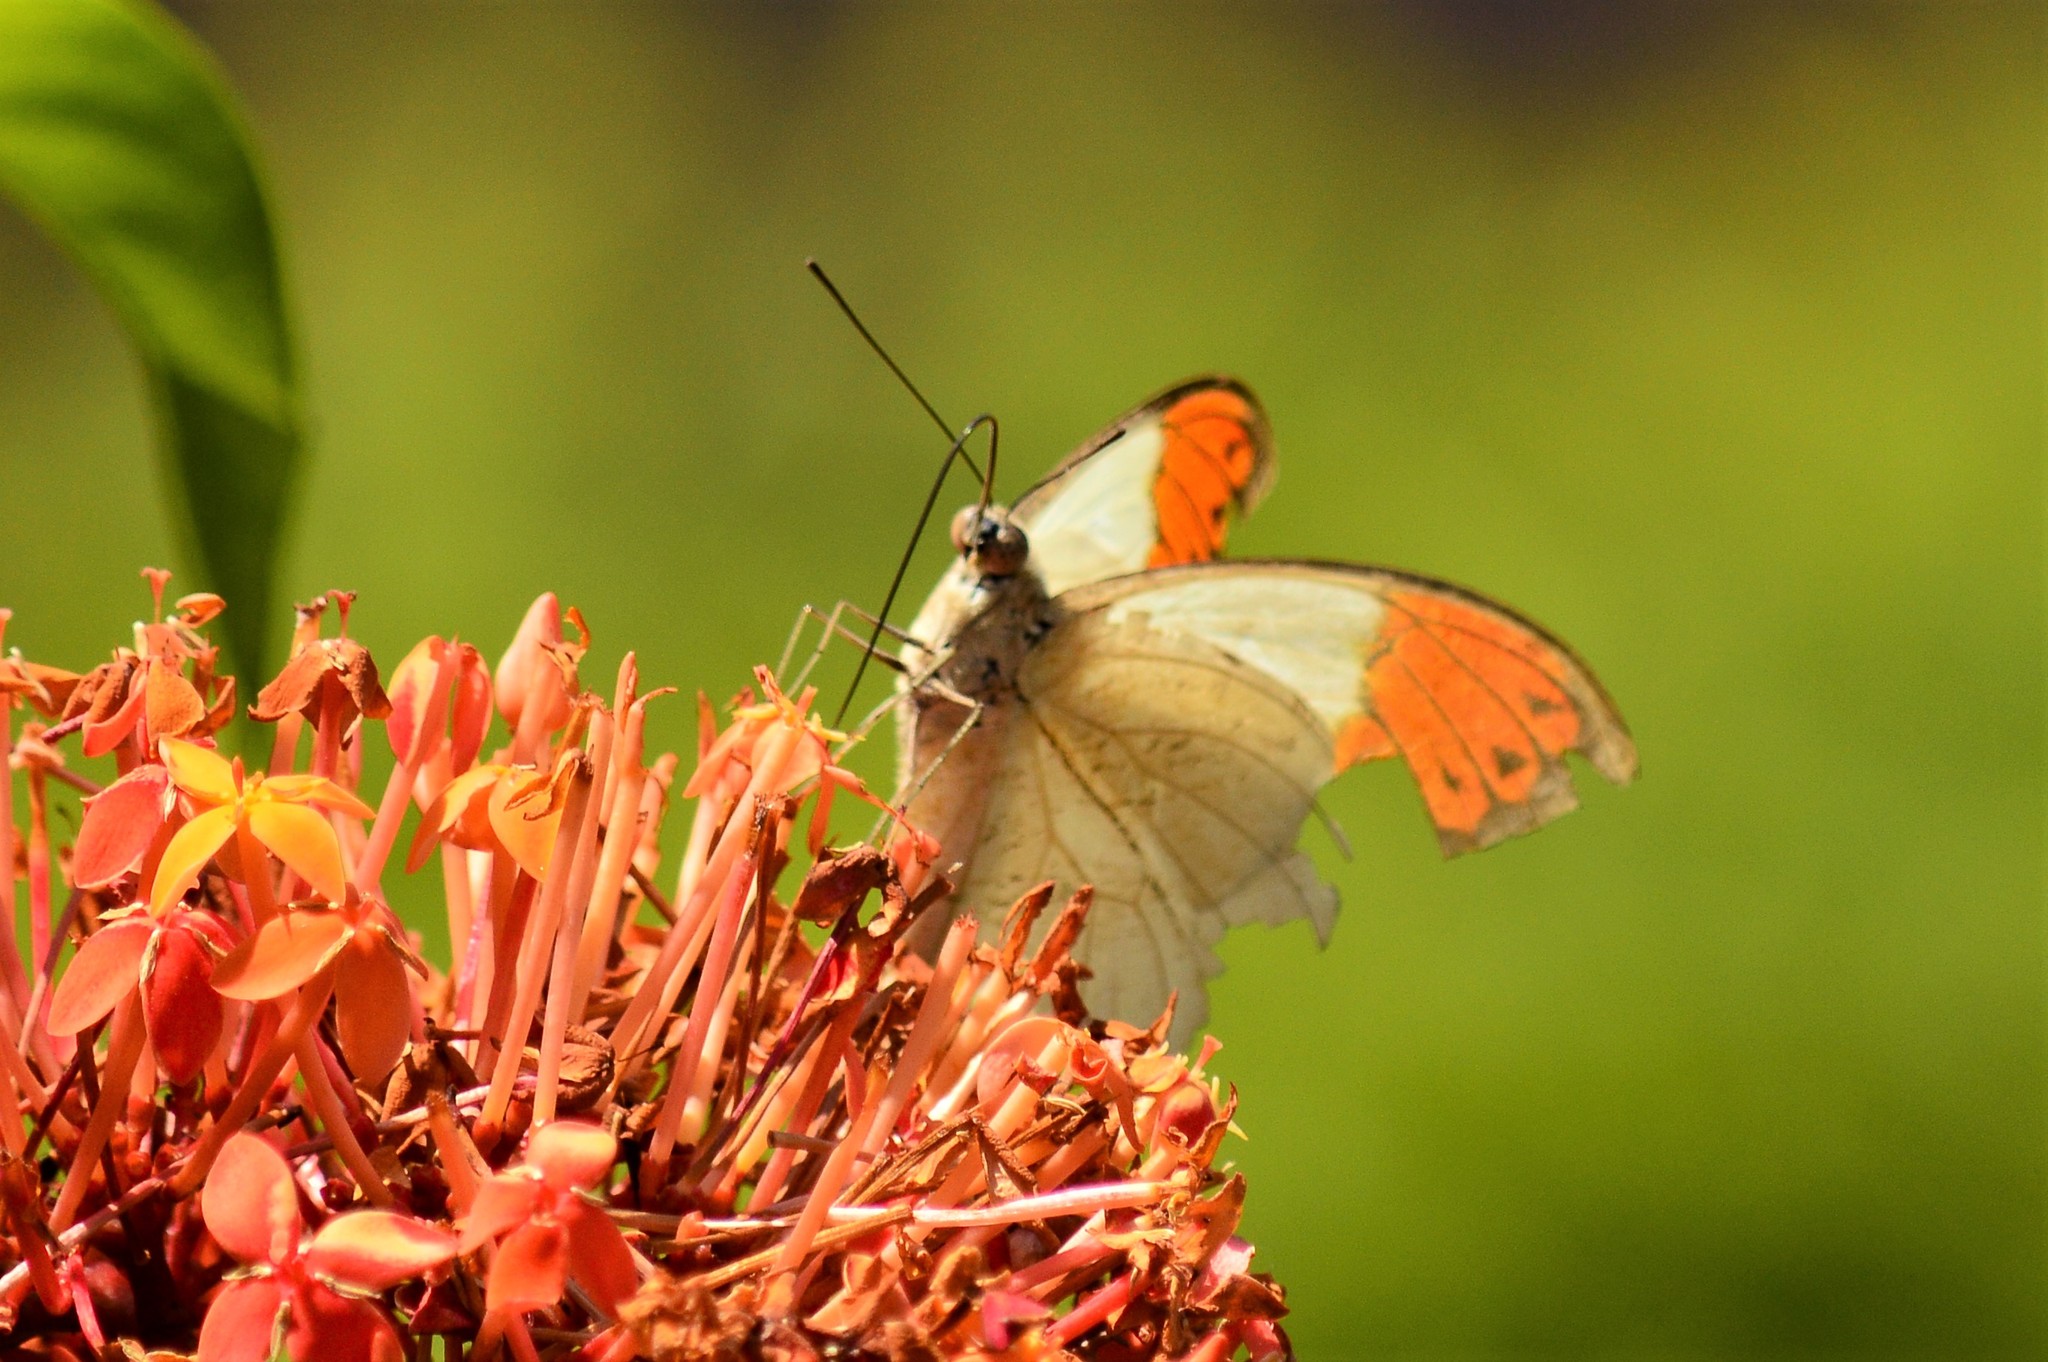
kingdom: Animalia
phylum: Arthropoda
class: Insecta
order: Lepidoptera
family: Pieridae
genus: Hebomoia
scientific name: Hebomoia glaucippe
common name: Great orange tip
